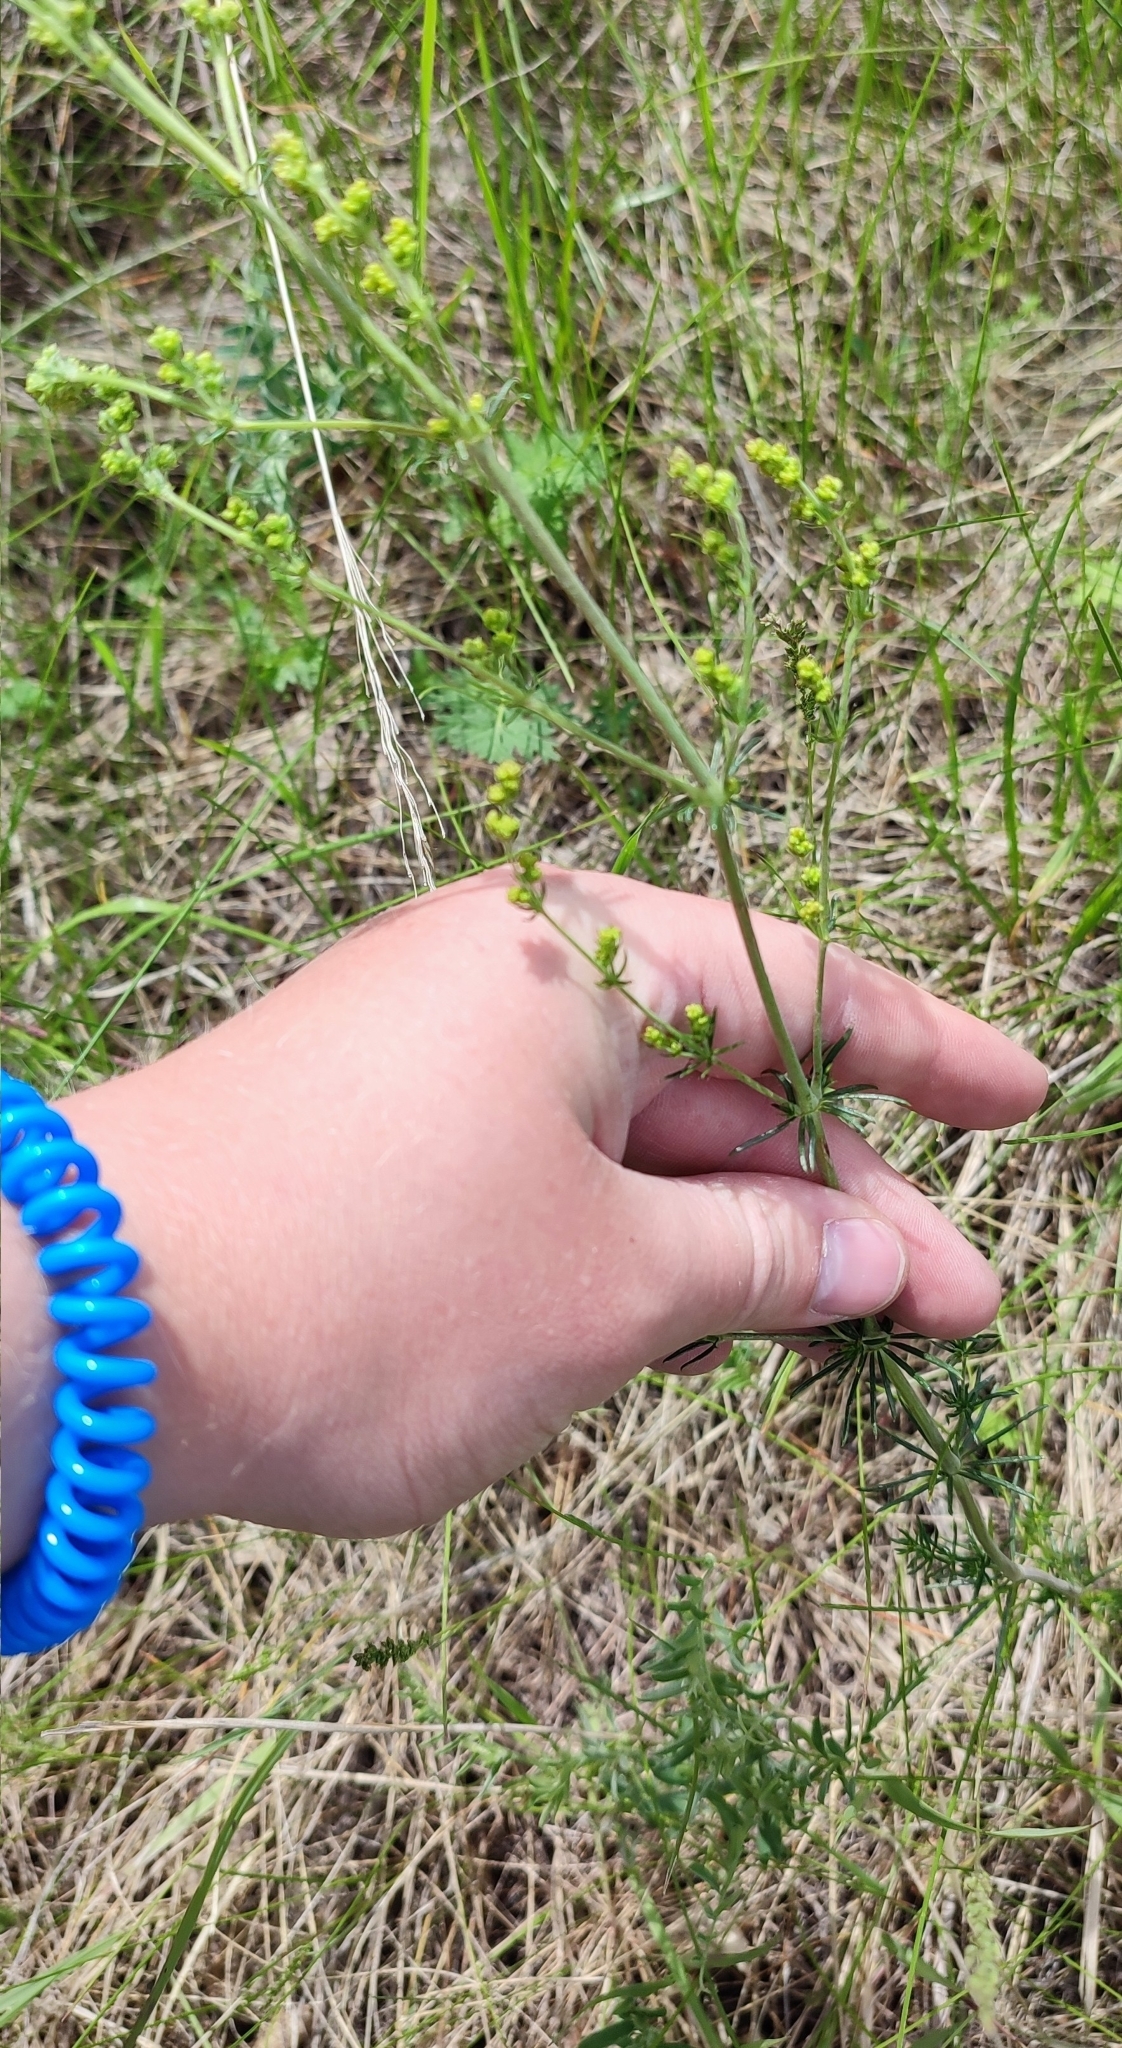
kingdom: Plantae
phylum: Tracheophyta
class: Magnoliopsida
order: Gentianales
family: Rubiaceae
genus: Galium
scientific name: Galium verum
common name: Lady's bedstraw
